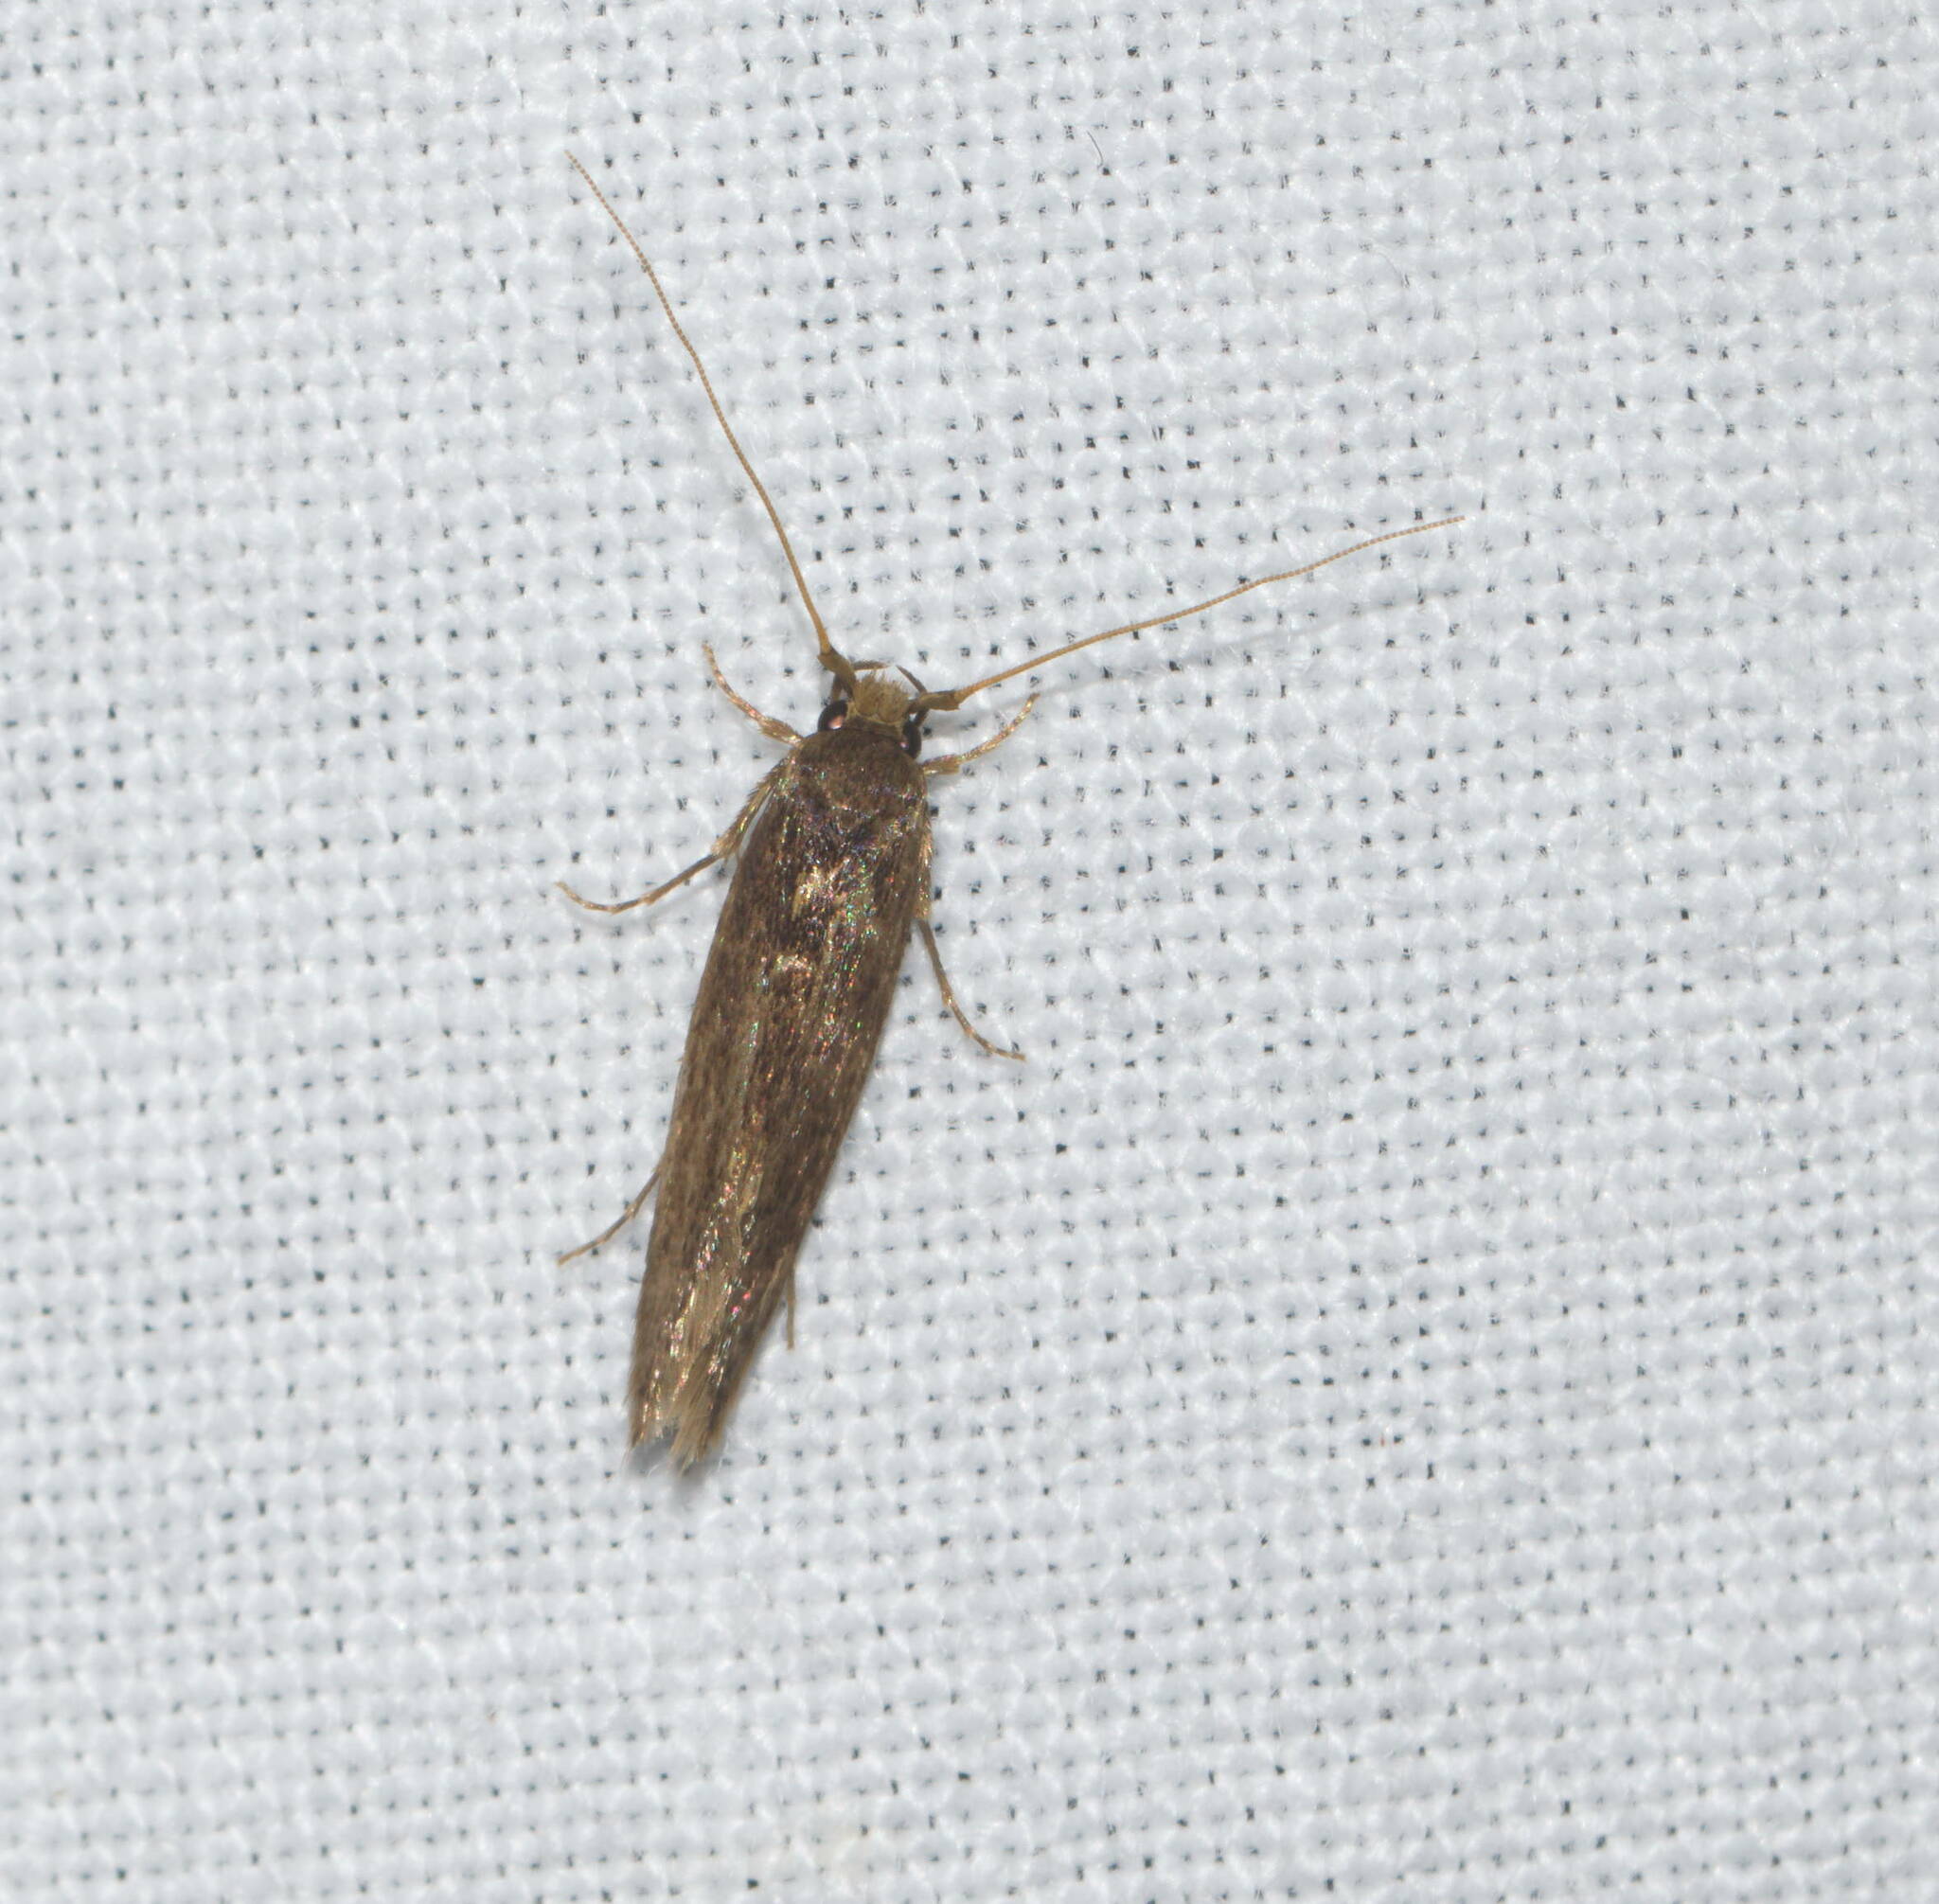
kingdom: Animalia
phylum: Arthropoda
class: Insecta
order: Lepidoptera
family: Tineidae
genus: Opogona
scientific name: Opogona omoscopa
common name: Moth
